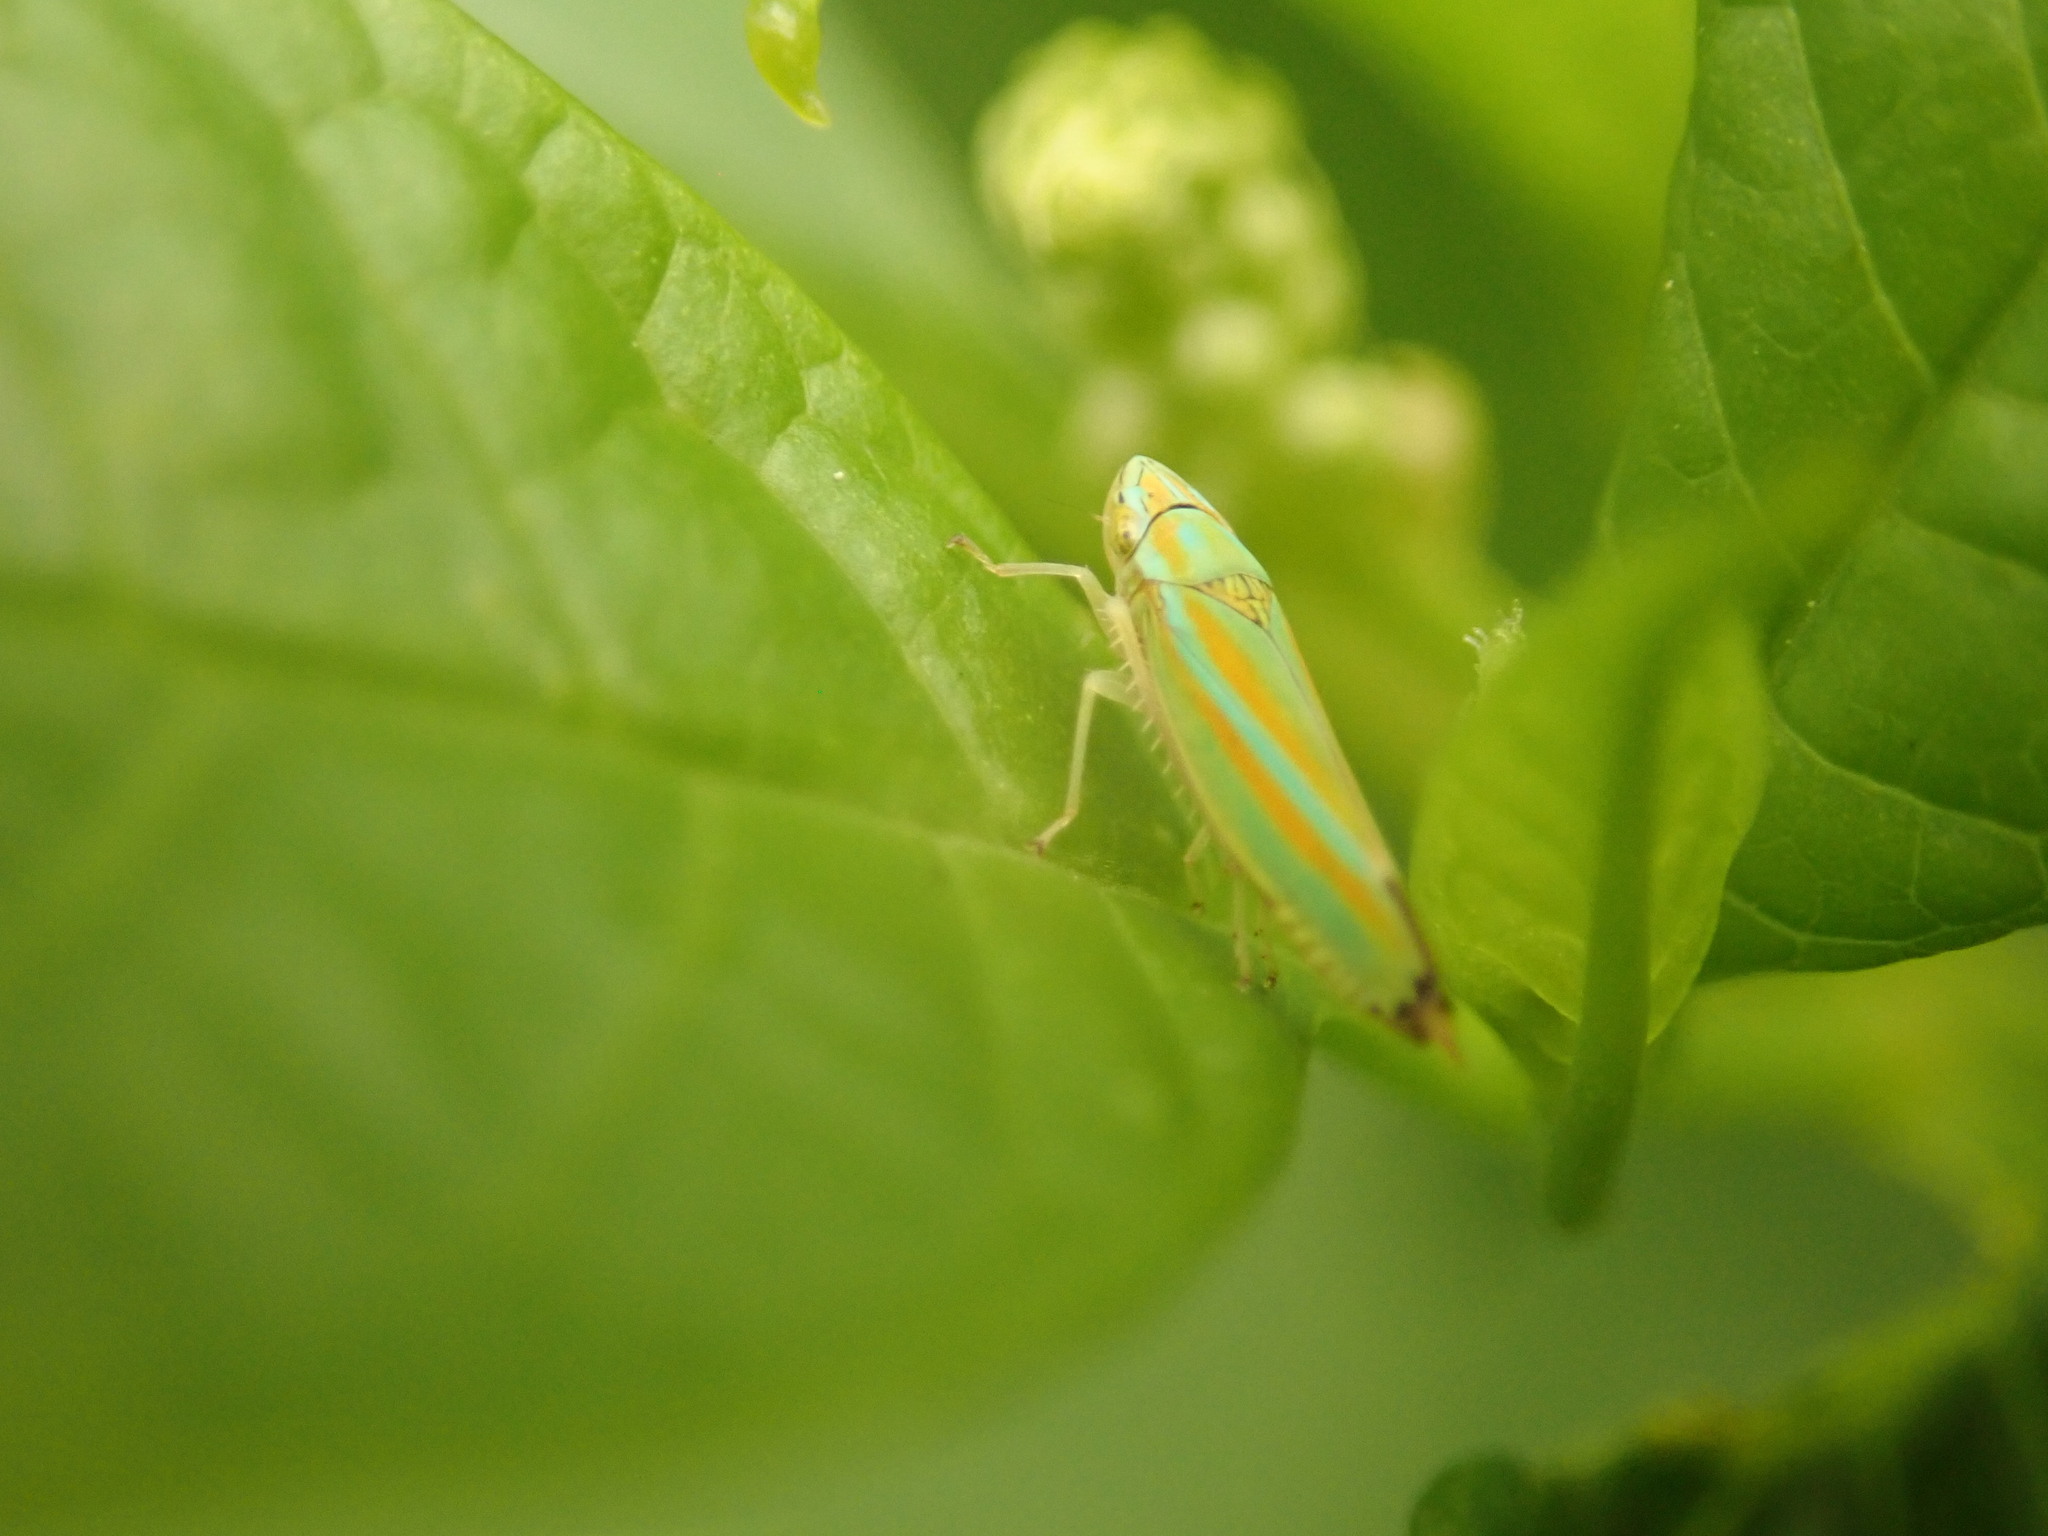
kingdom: Animalia
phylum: Arthropoda
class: Insecta
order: Hemiptera
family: Cicadellidae
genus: Graphocephala
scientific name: Graphocephala versuta
